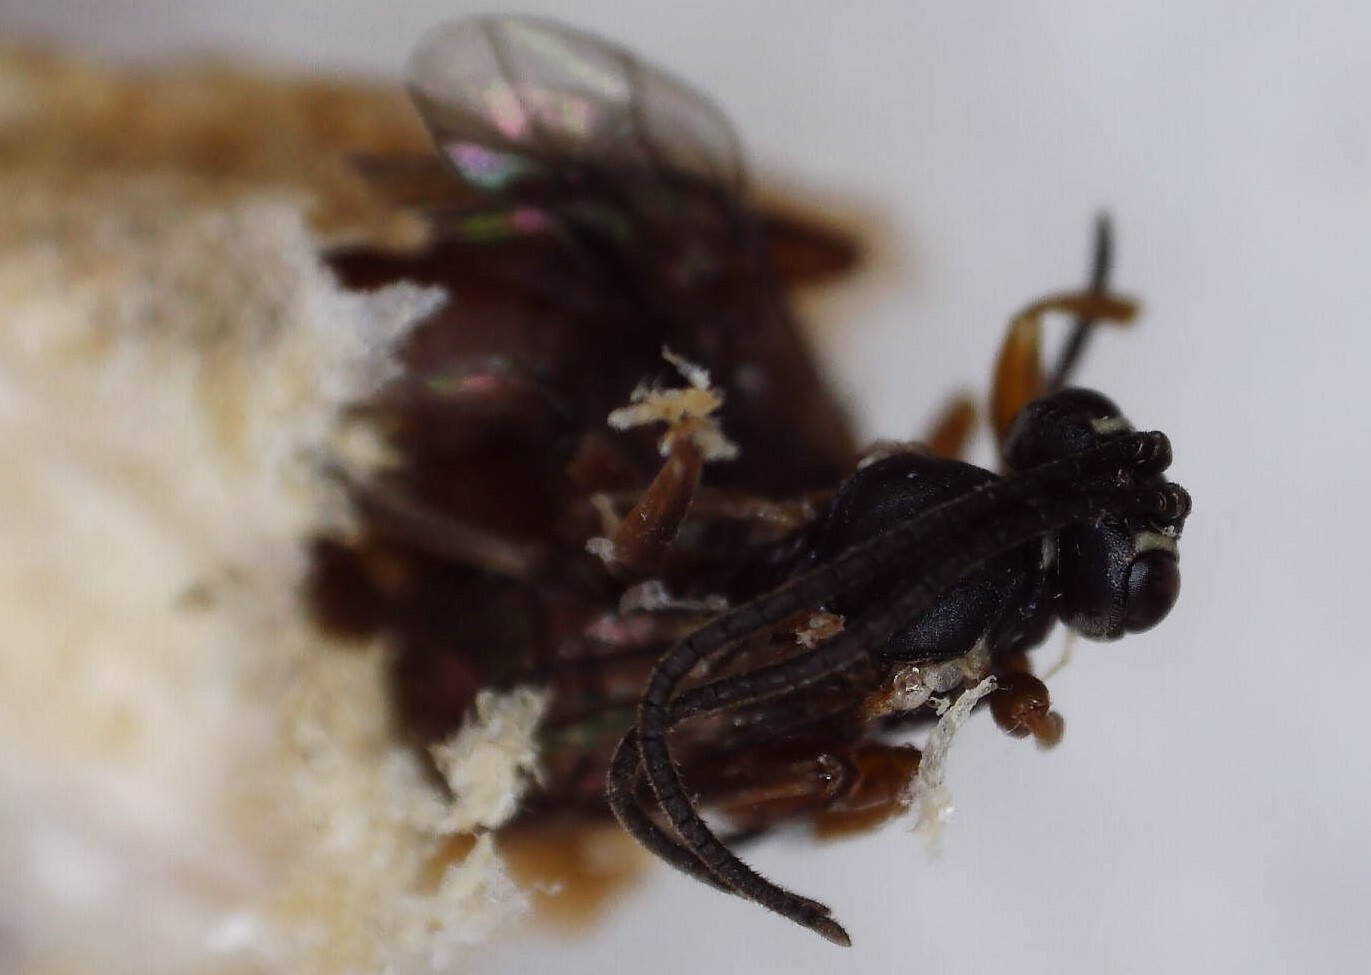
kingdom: Animalia
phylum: Arthropoda
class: Insecta
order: Hymenoptera
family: Ichneumonidae
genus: Sphecophaga
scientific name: Sphecophaga vesparum
